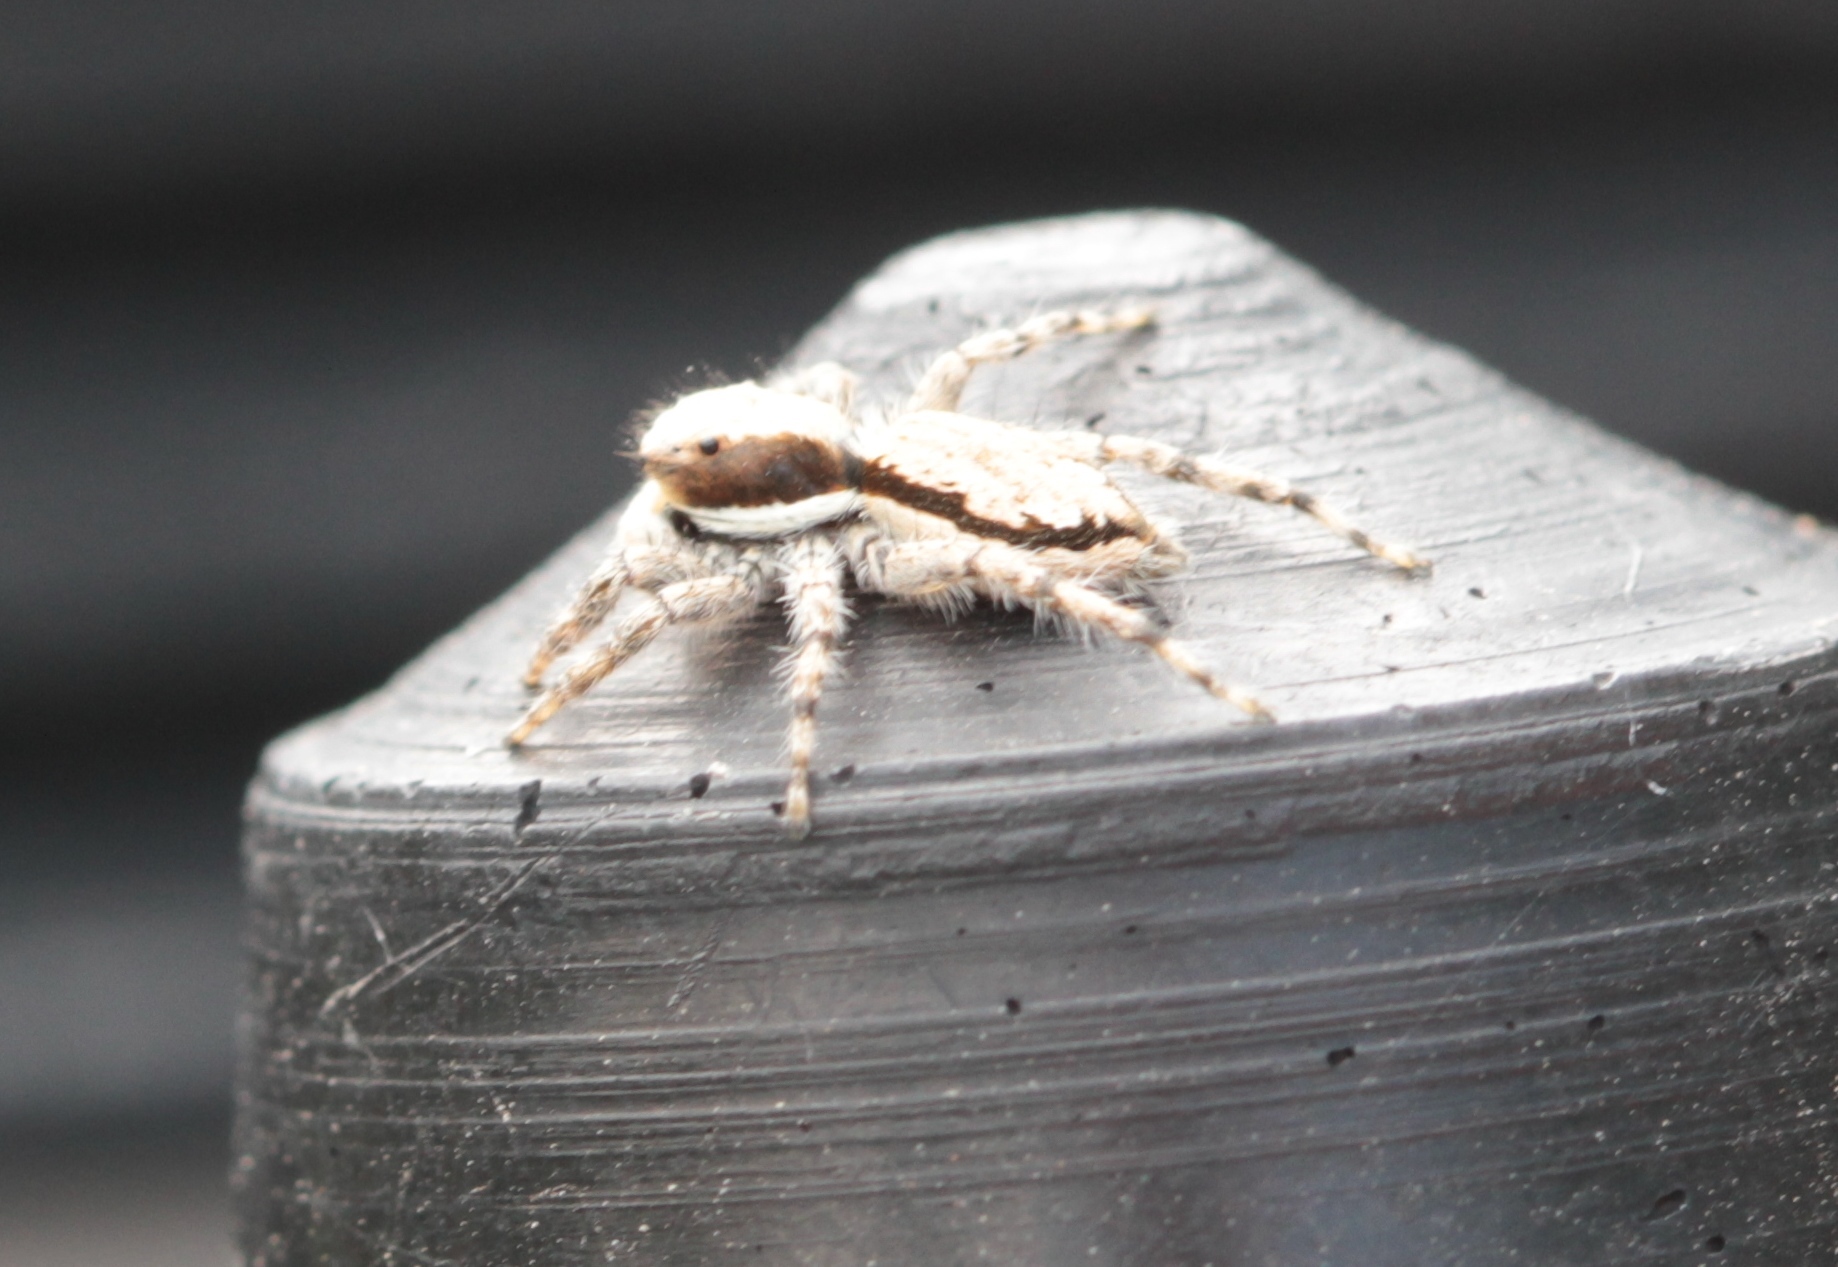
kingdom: Animalia
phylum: Arthropoda
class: Arachnida
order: Araneae
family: Salticidae
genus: Menemerus
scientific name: Menemerus bivittatus
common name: Gray wall jumper
